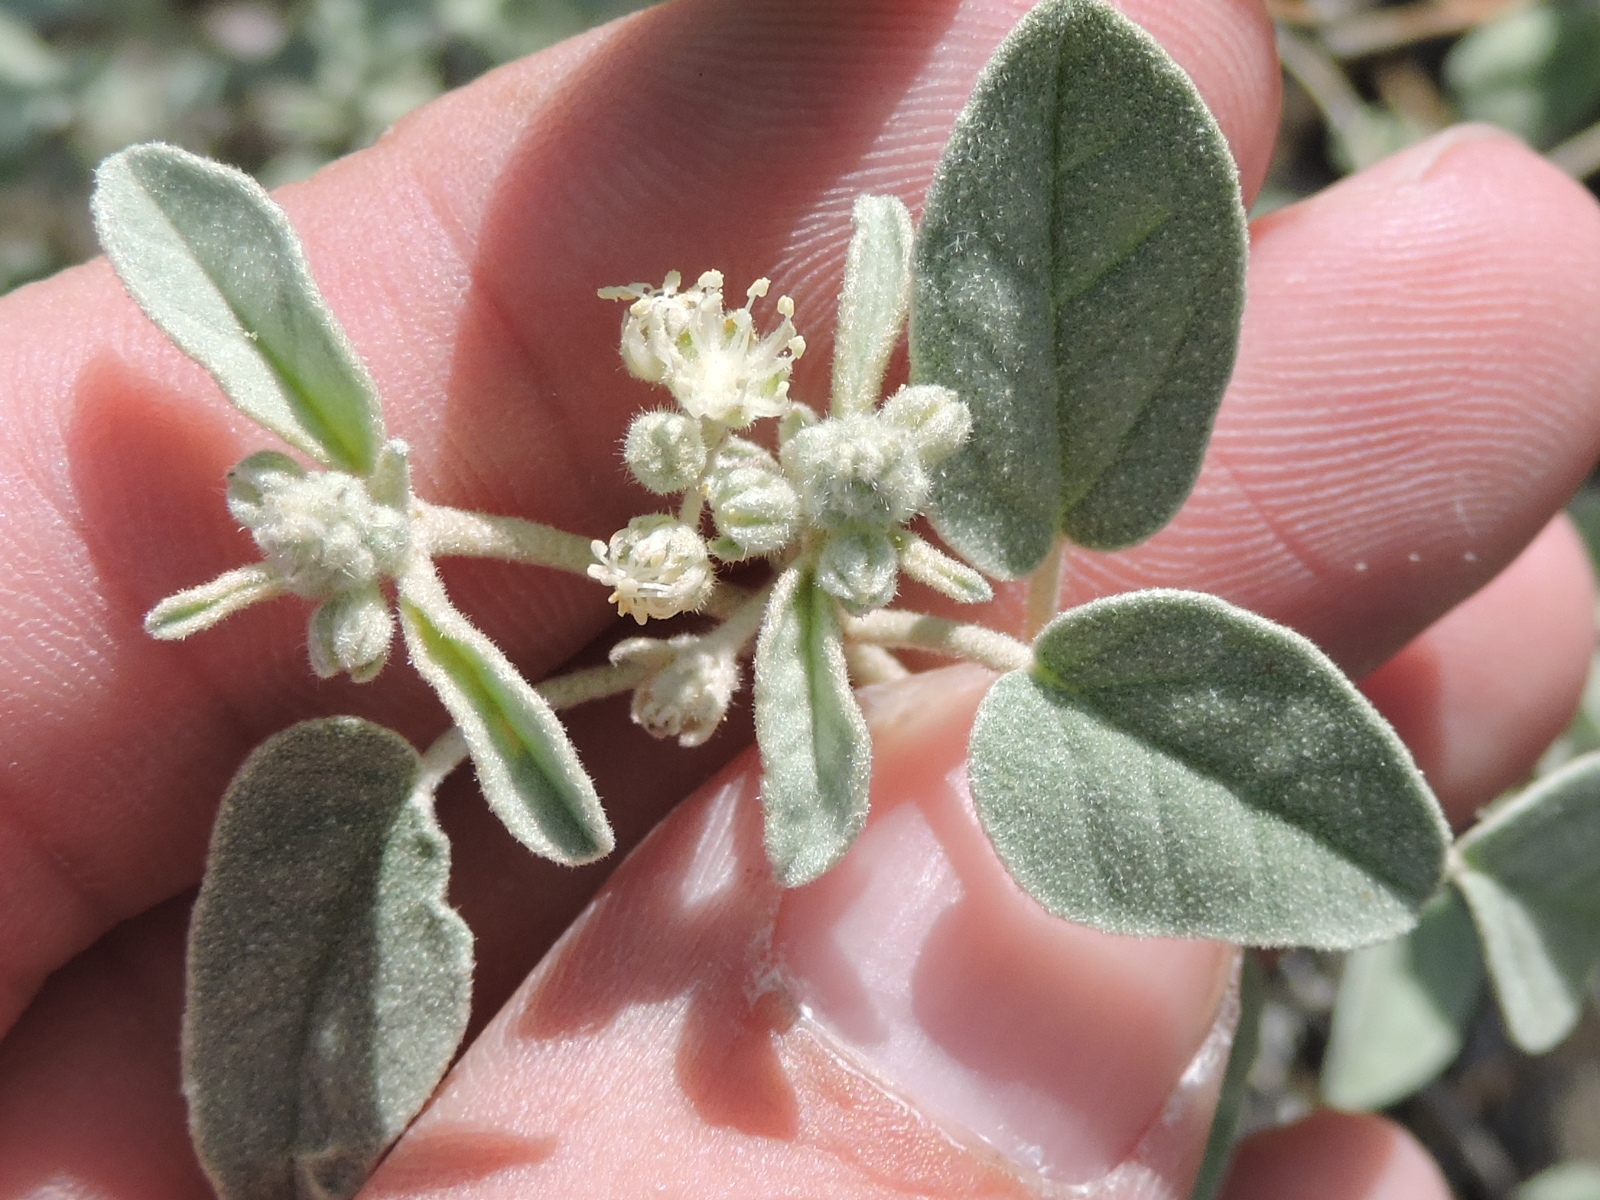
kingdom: Plantae
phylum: Tracheophyta
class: Magnoliopsida
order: Malpighiales
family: Euphorbiaceae
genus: Croton
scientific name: Croton pottsii
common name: Leatherweed
